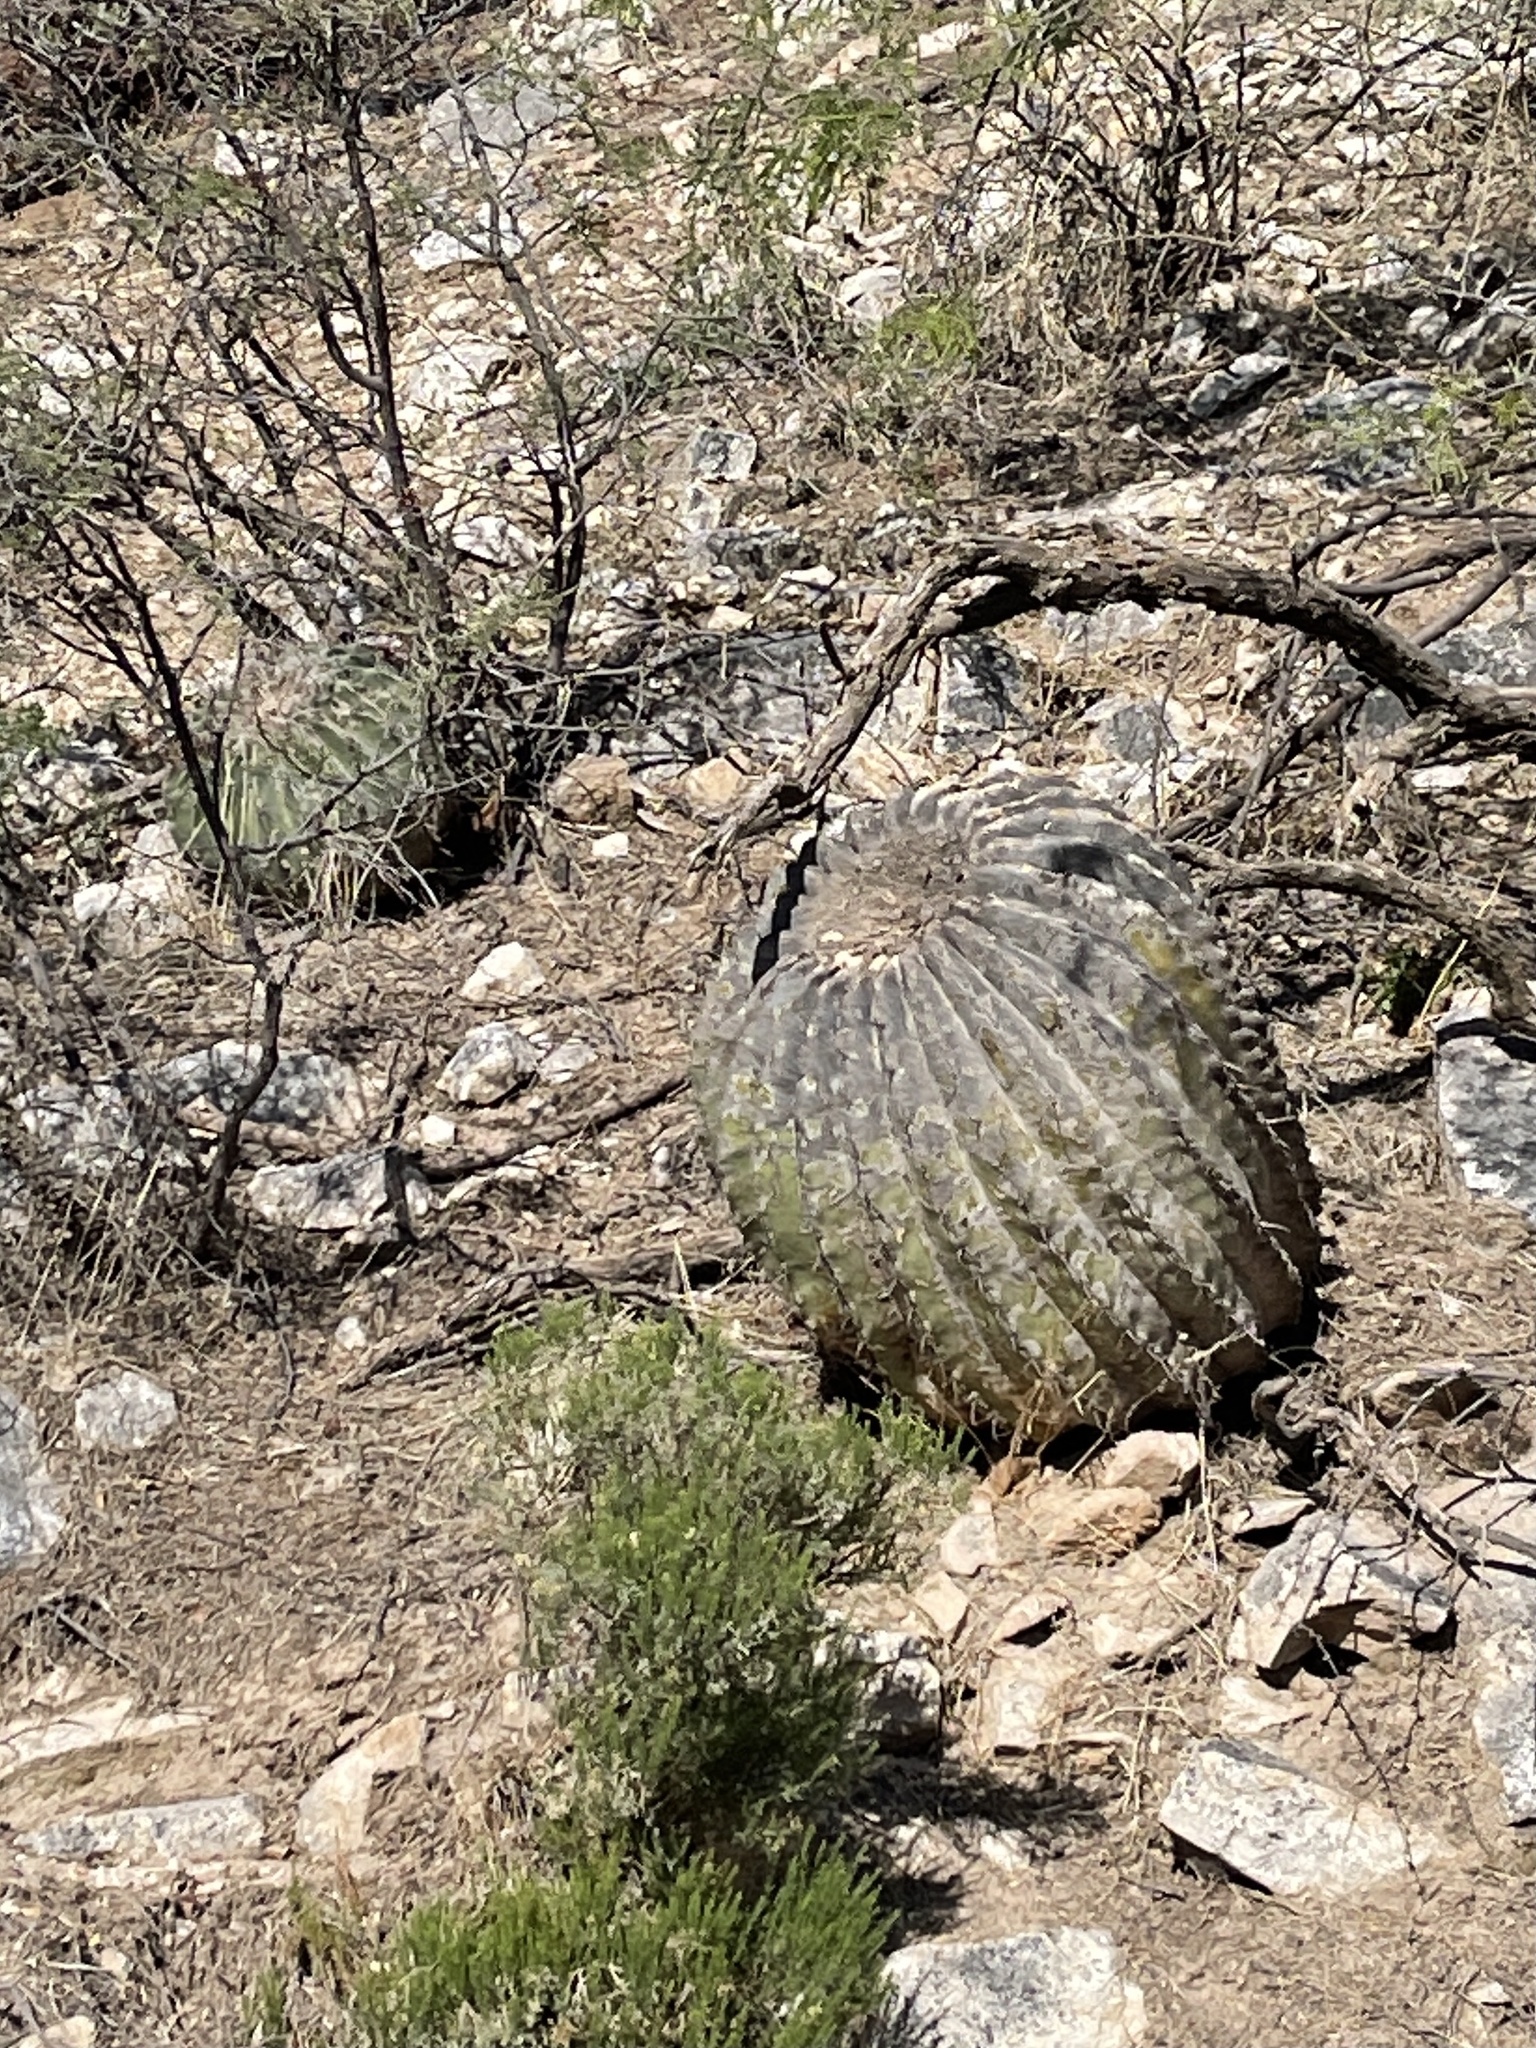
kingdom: Plantae
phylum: Tracheophyta
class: Magnoliopsida
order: Caryophyllales
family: Cactaceae
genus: Ferocactus
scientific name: Ferocactus wislizeni
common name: Candy barrel cactus
